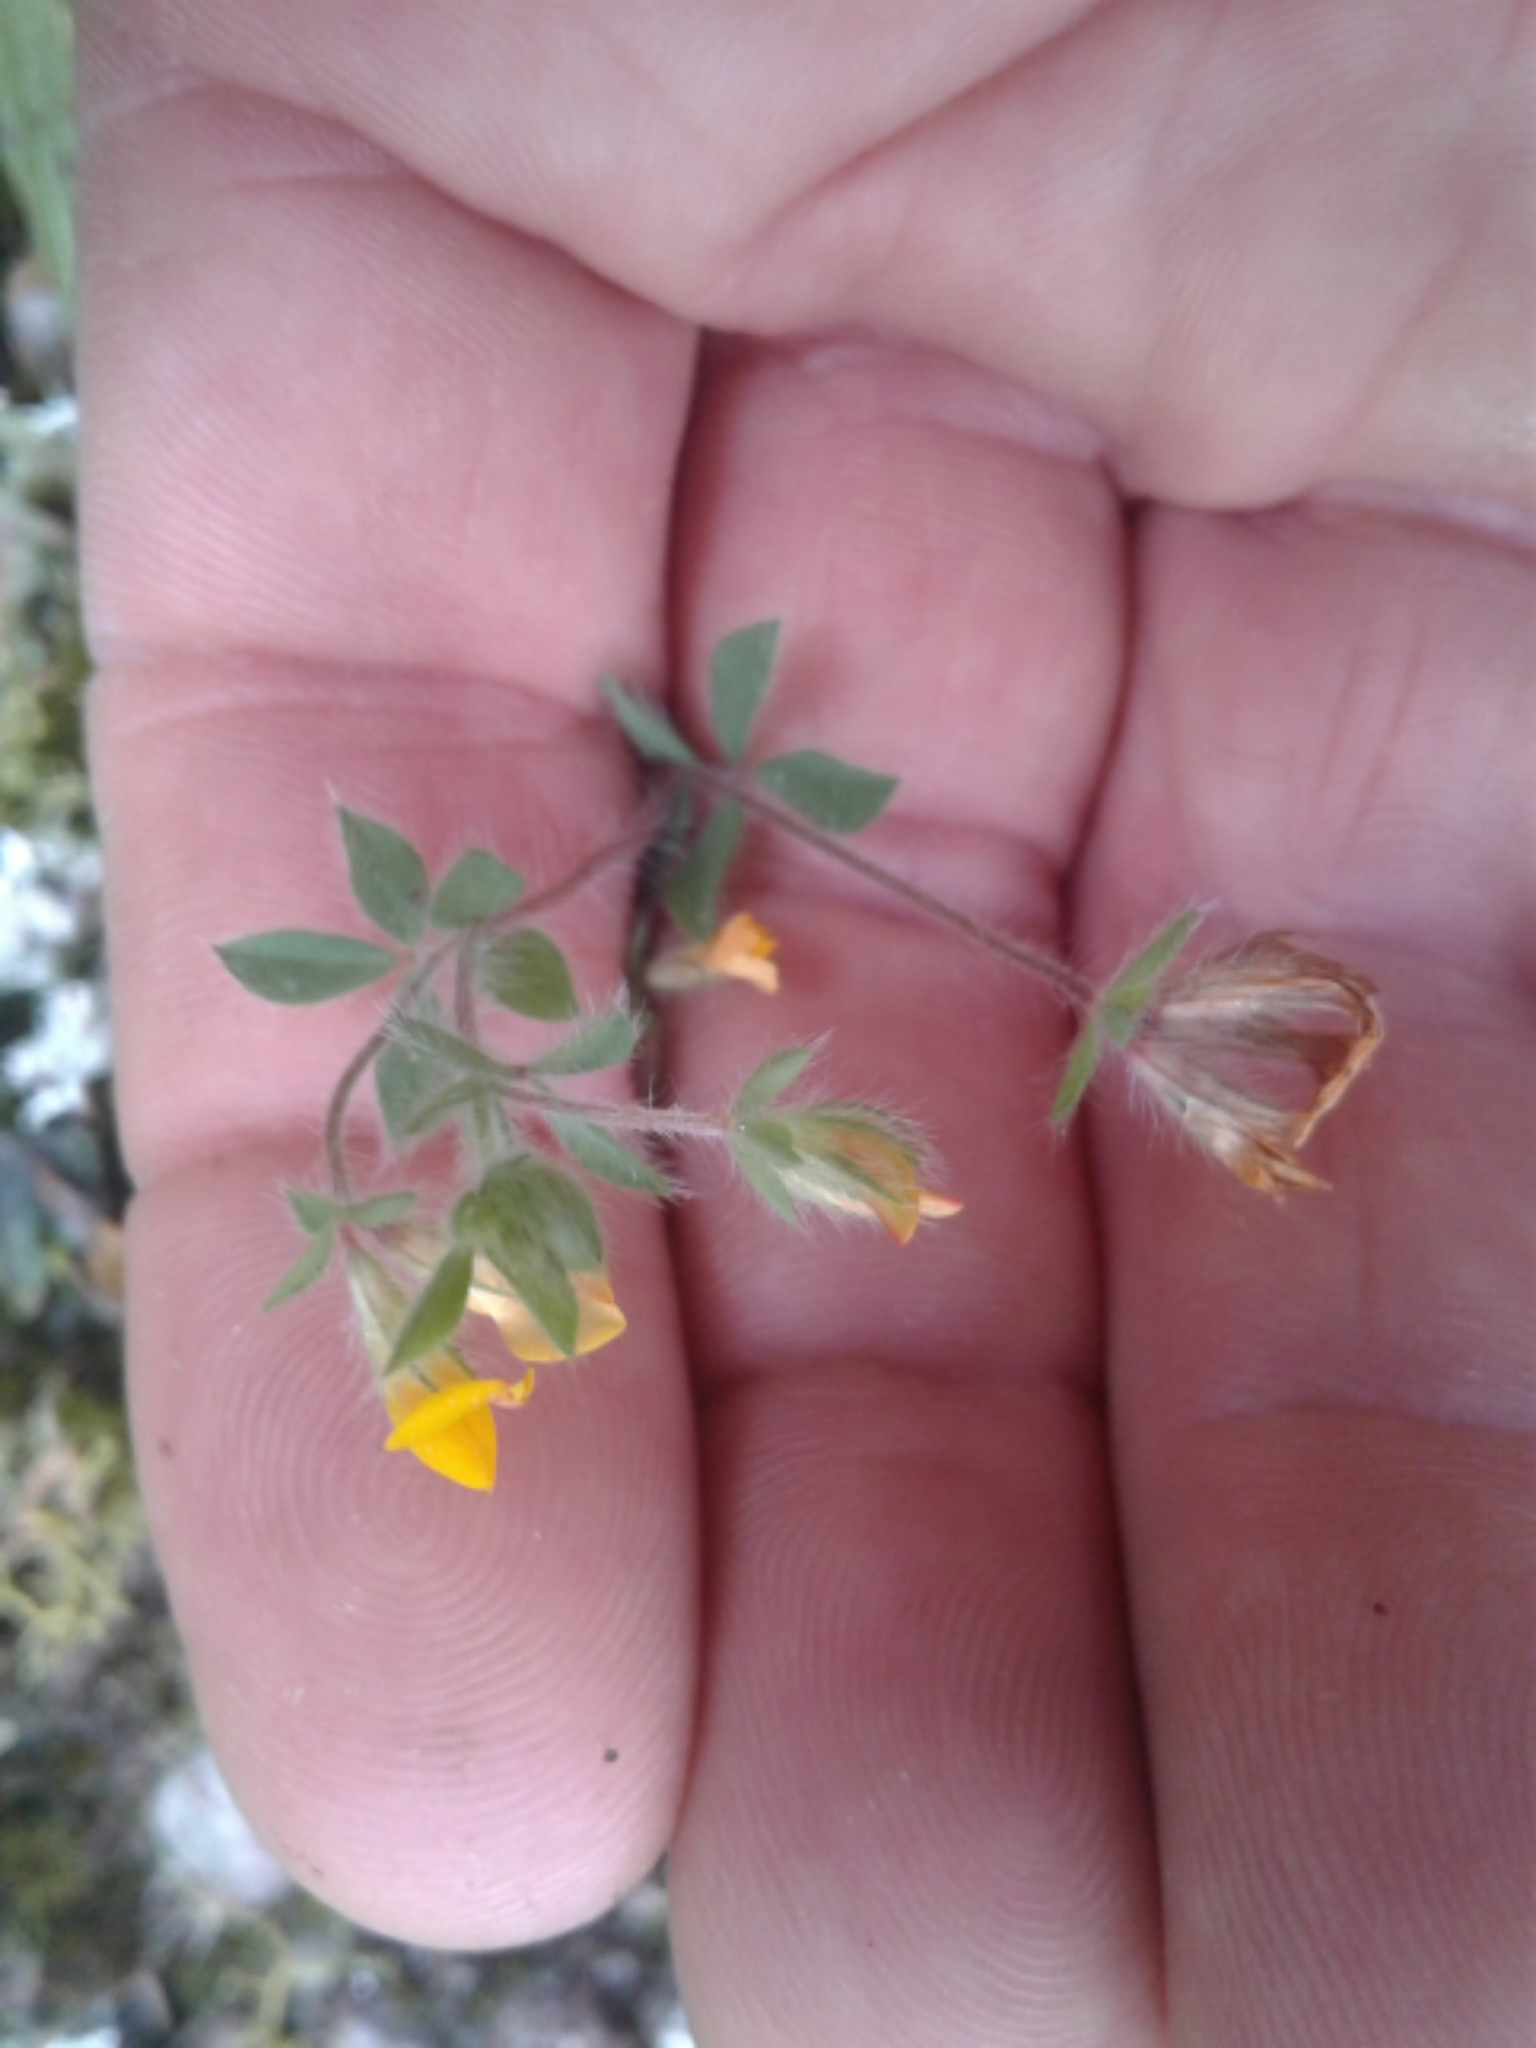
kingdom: Plantae
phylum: Tracheophyta
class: Magnoliopsida
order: Fabales
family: Fabaceae
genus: Lotus
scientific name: Lotus pedunculatus
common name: Greater birdsfoot-trefoil
